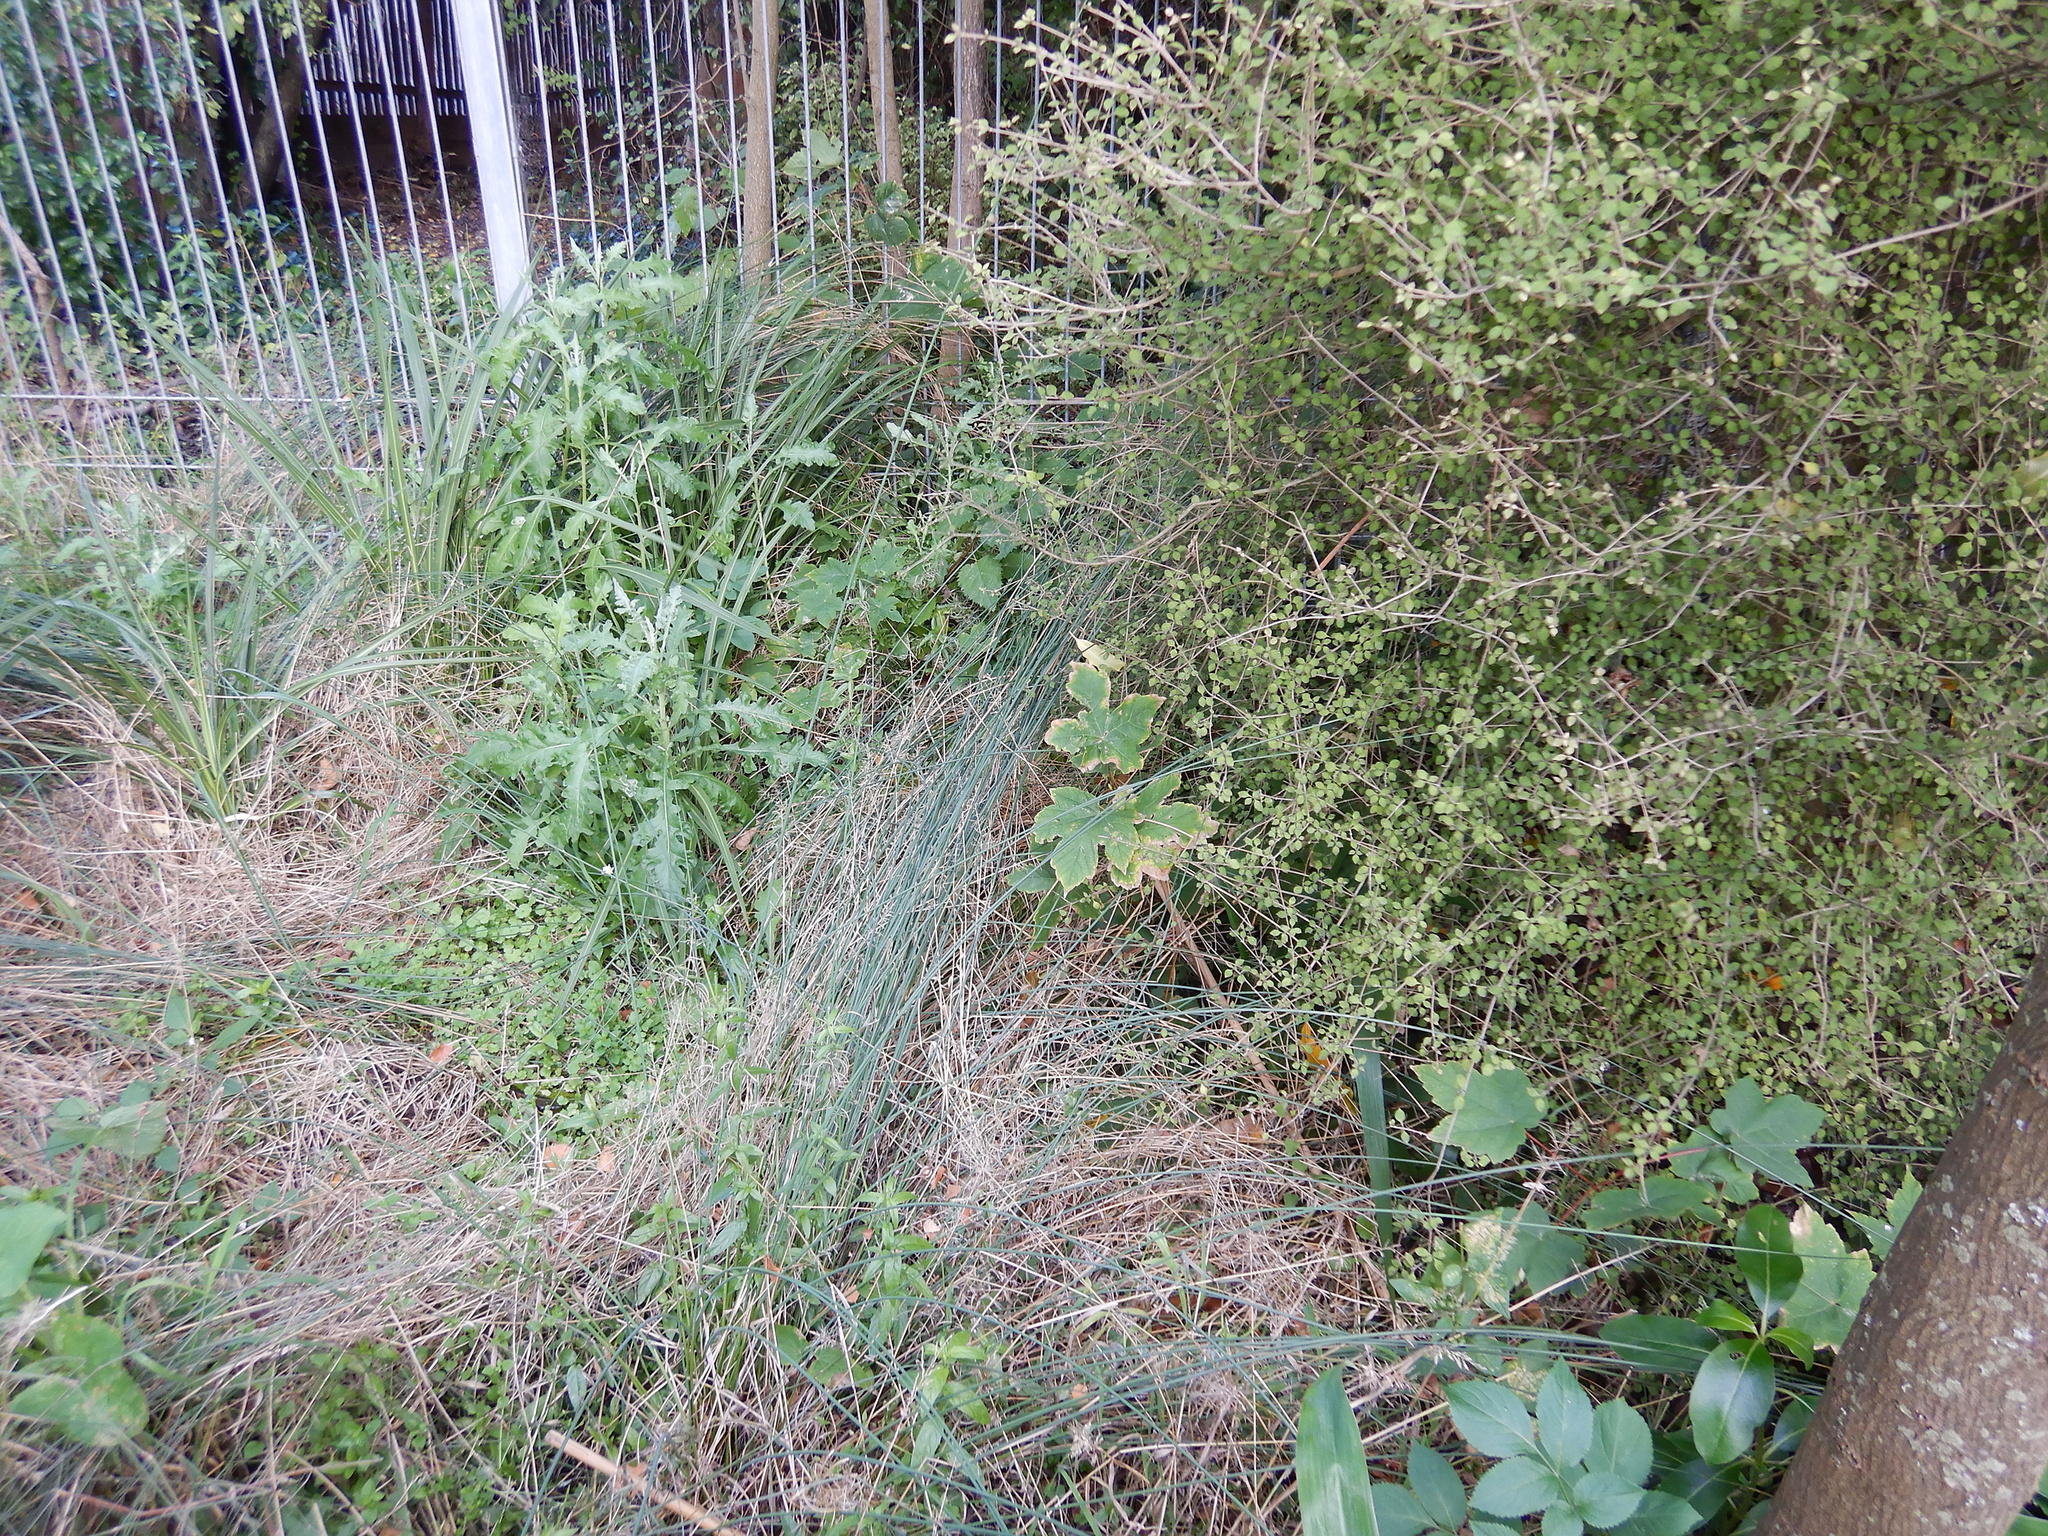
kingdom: Plantae
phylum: Tracheophyta
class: Magnoliopsida
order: Sapindales
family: Sapindaceae
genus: Acer
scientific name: Acer pseudoplatanus
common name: Sycamore
